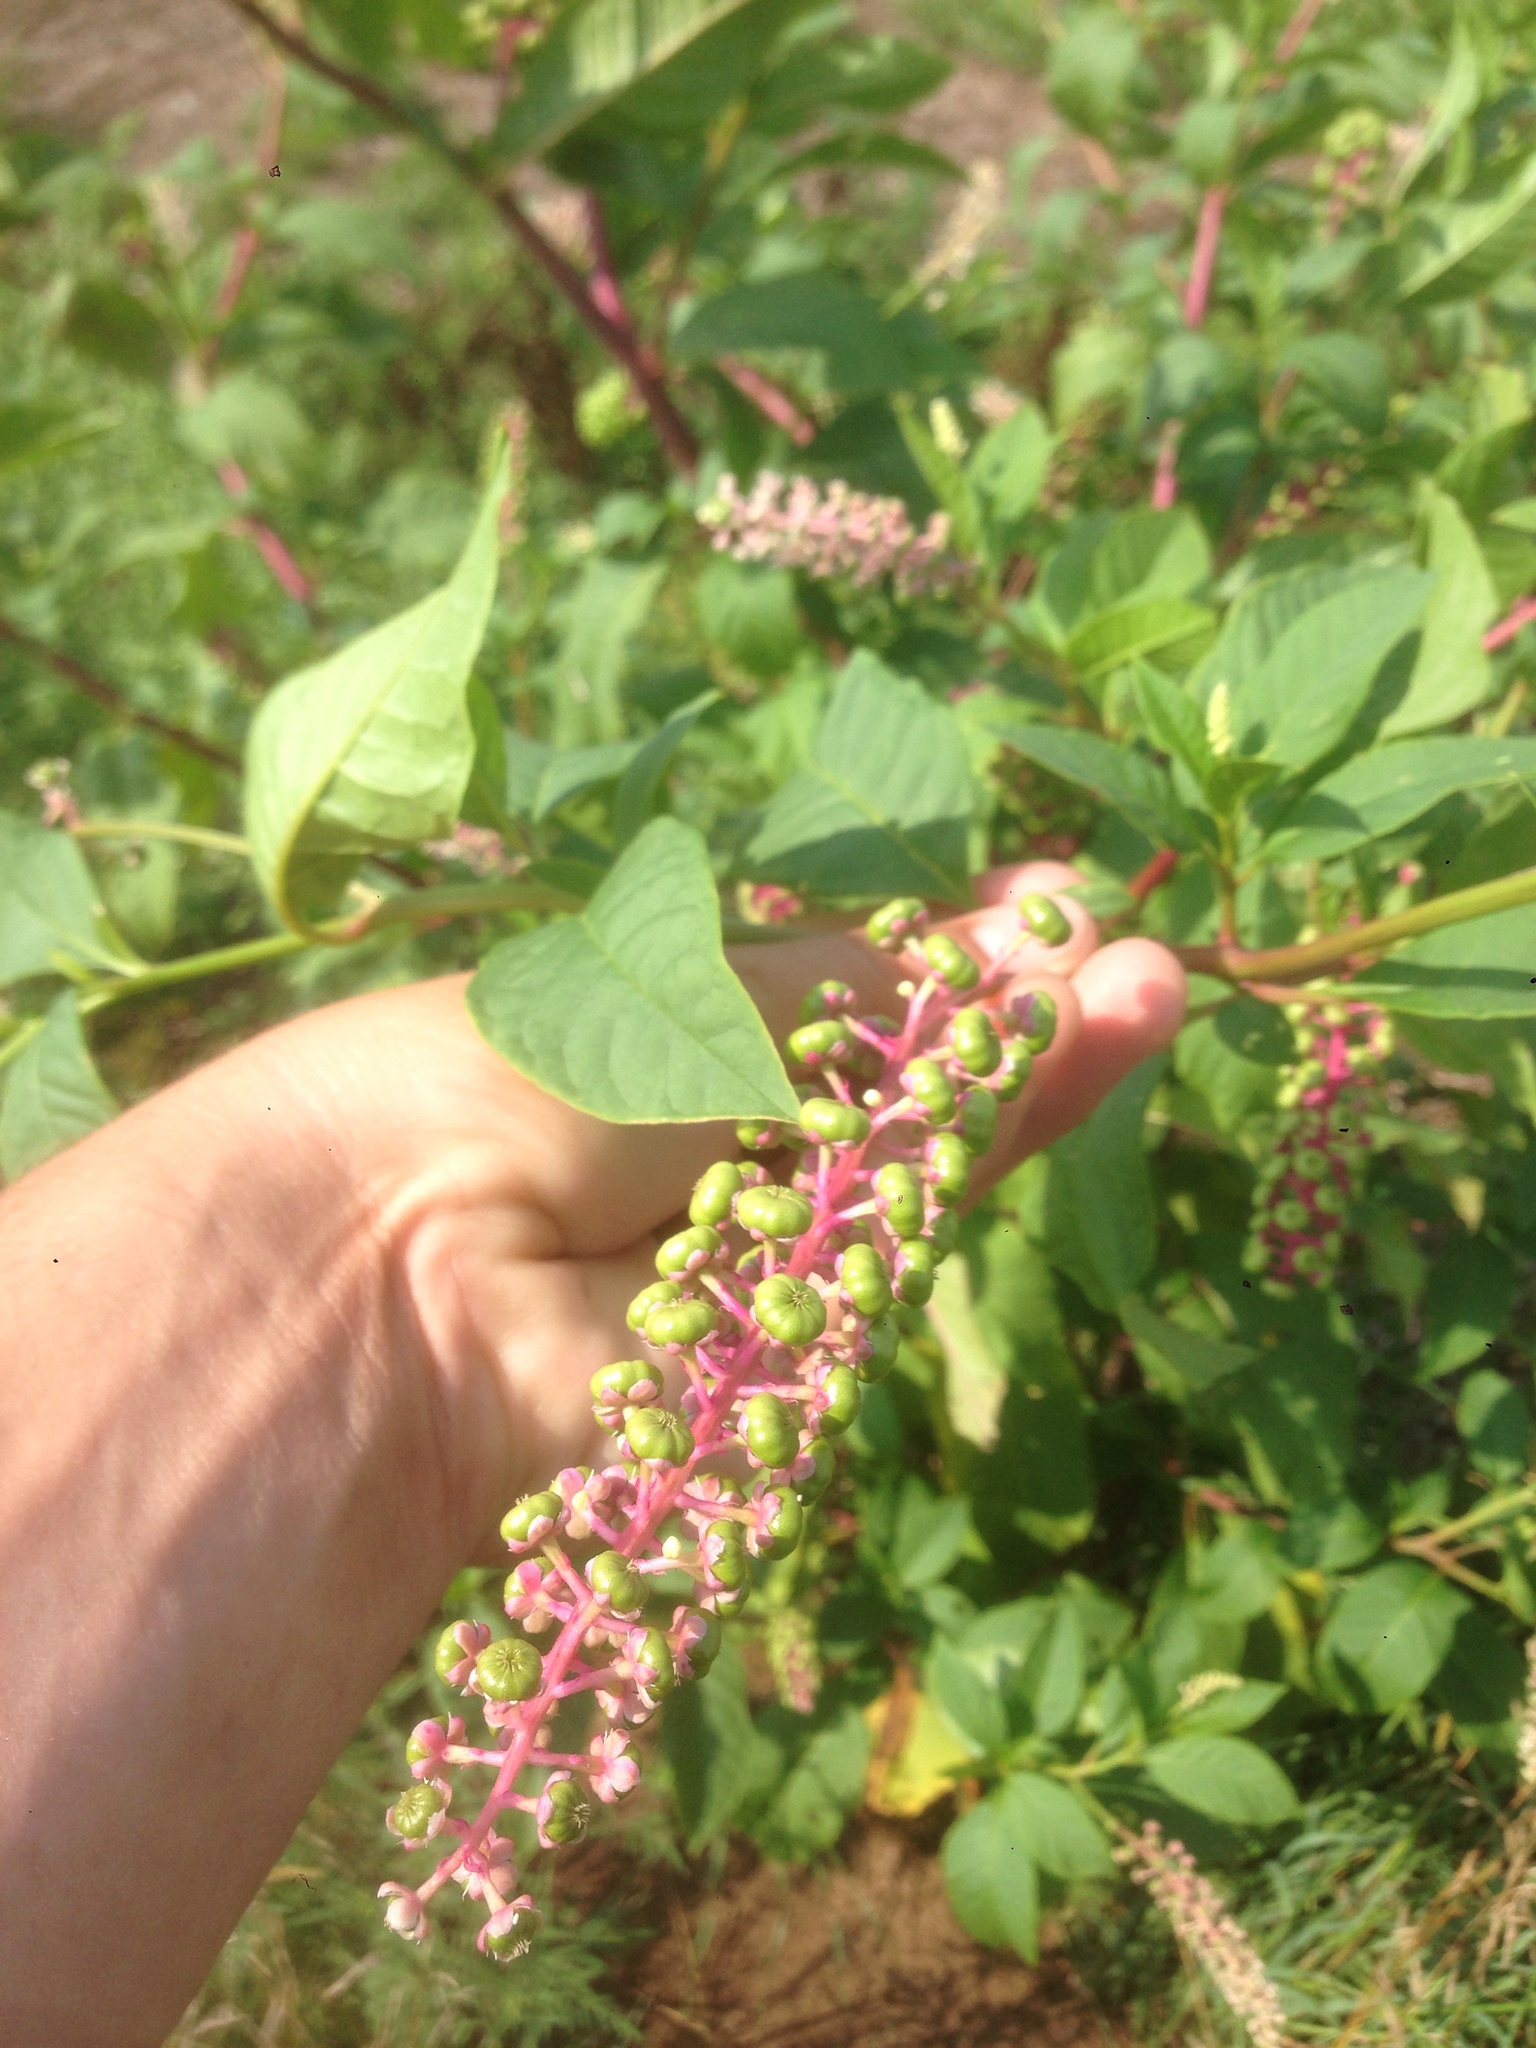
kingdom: Plantae
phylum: Tracheophyta
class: Magnoliopsida
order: Caryophyllales
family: Phytolaccaceae
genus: Phytolacca
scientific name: Phytolacca americana
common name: American pokeweed
